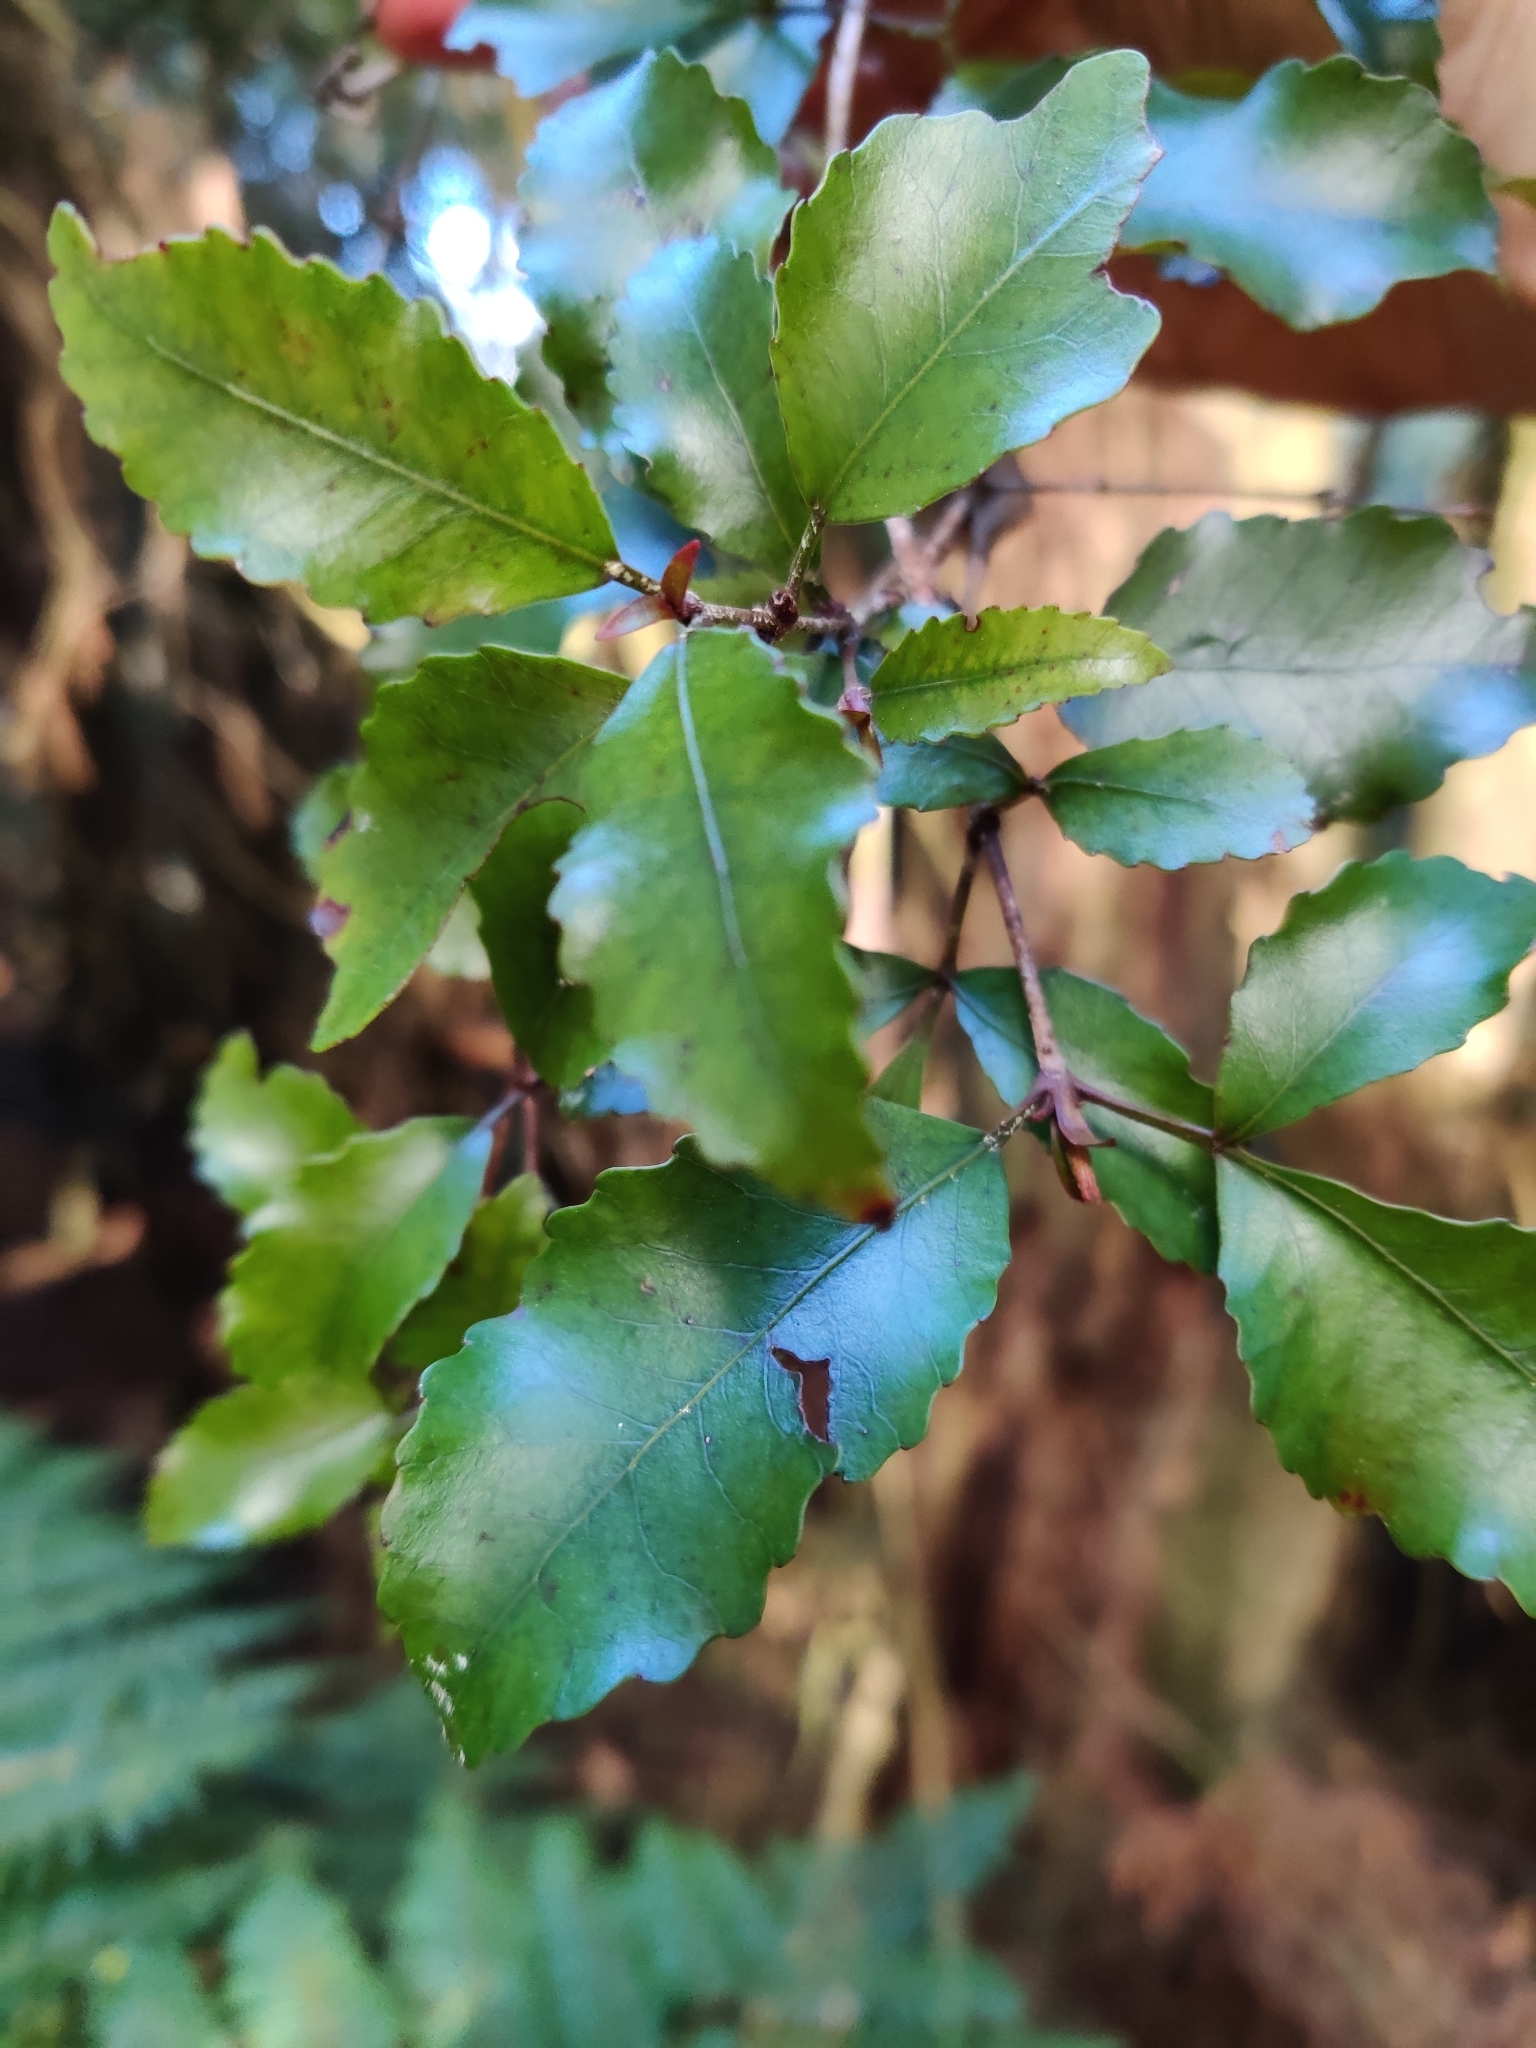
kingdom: Plantae
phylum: Tracheophyta
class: Magnoliopsida
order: Oxalidales
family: Cunoniaceae
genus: Pterophylla
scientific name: Pterophylla racemosa
